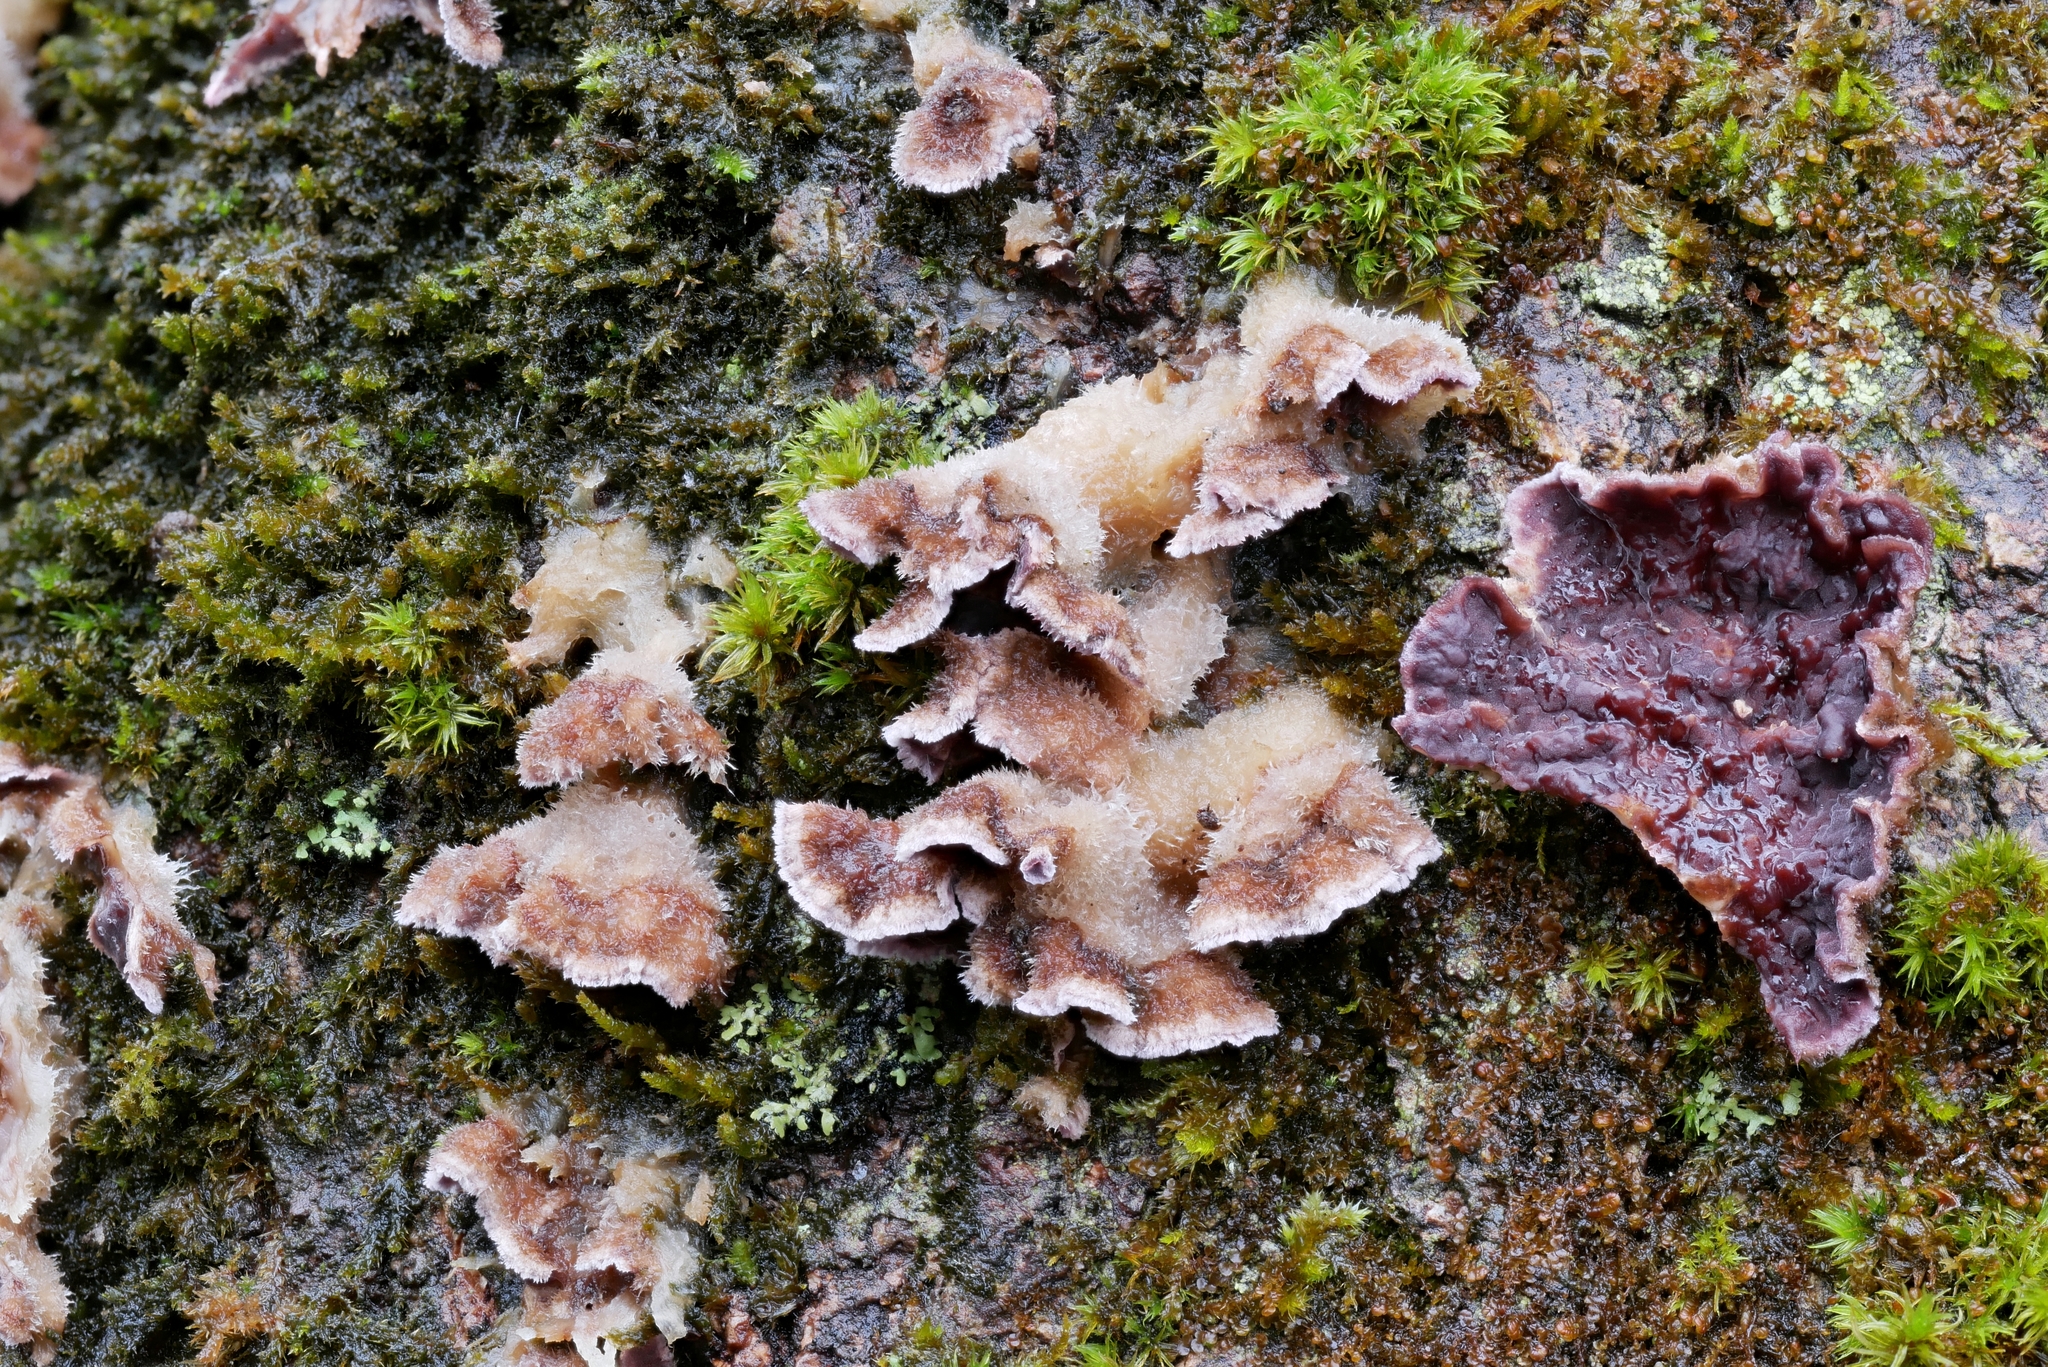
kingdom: Fungi
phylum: Basidiomycota
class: Agaricomycetes
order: Agaricales
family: Cyphellaceae
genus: Chondrostereum
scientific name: Chondrostereum purpureum
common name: Silver leaf disease
